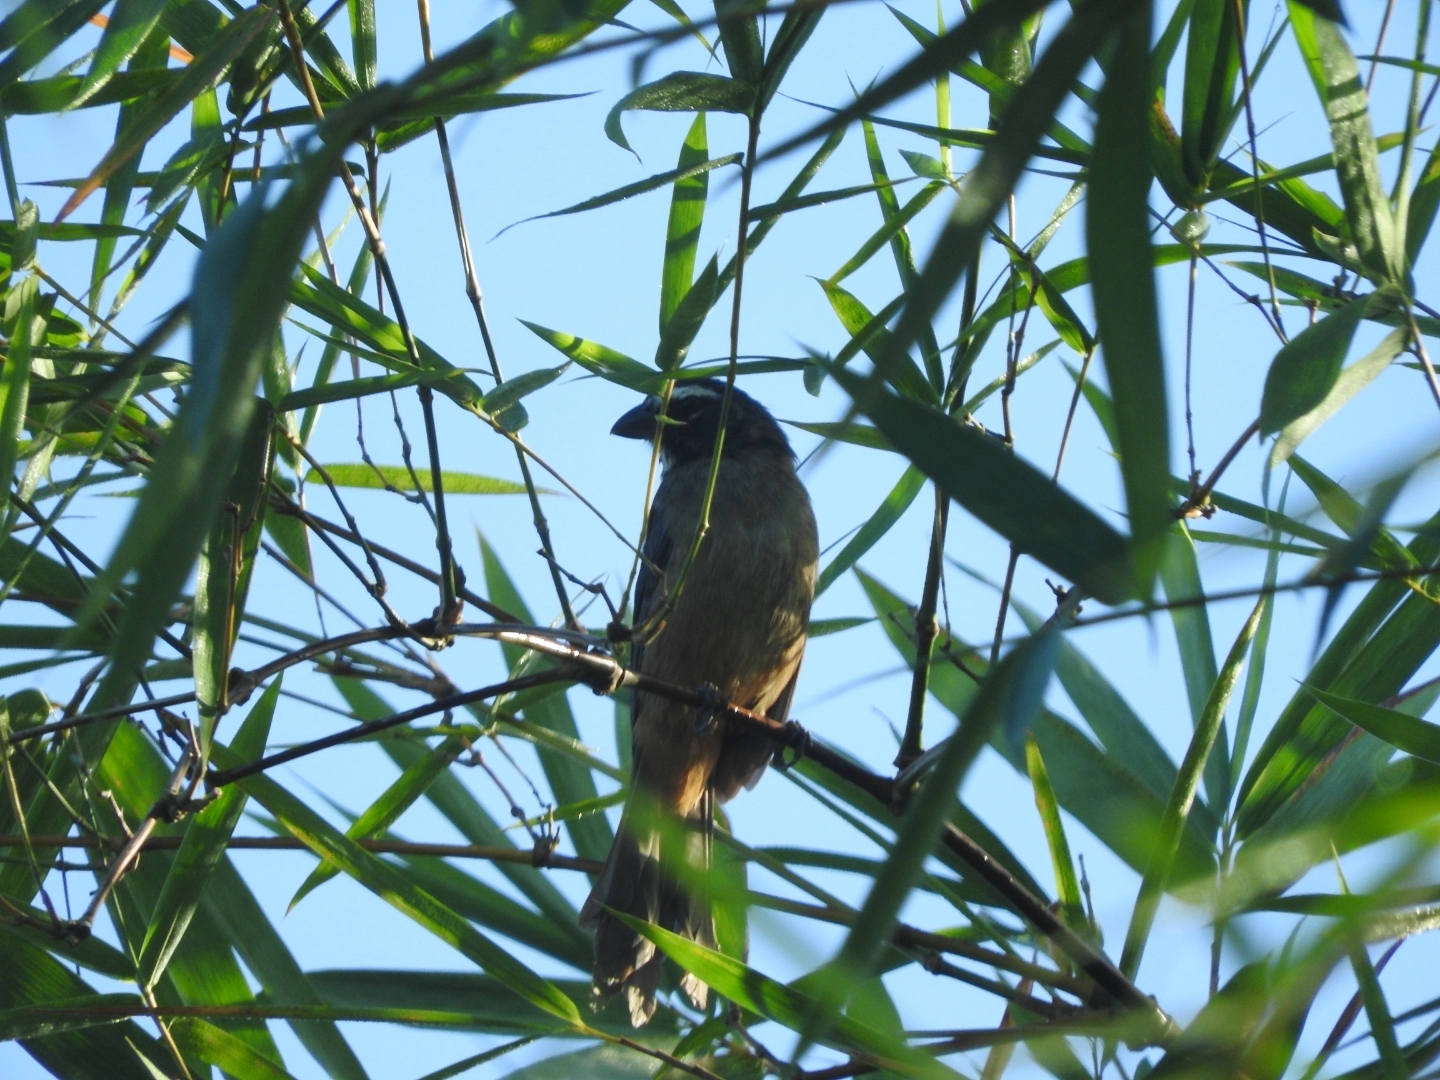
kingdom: Animalia
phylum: Chordata
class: Aves
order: Passeriformes
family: Thraupidae
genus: Saltator
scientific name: Saltator grandis
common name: Cinnamon-bellied saltator
